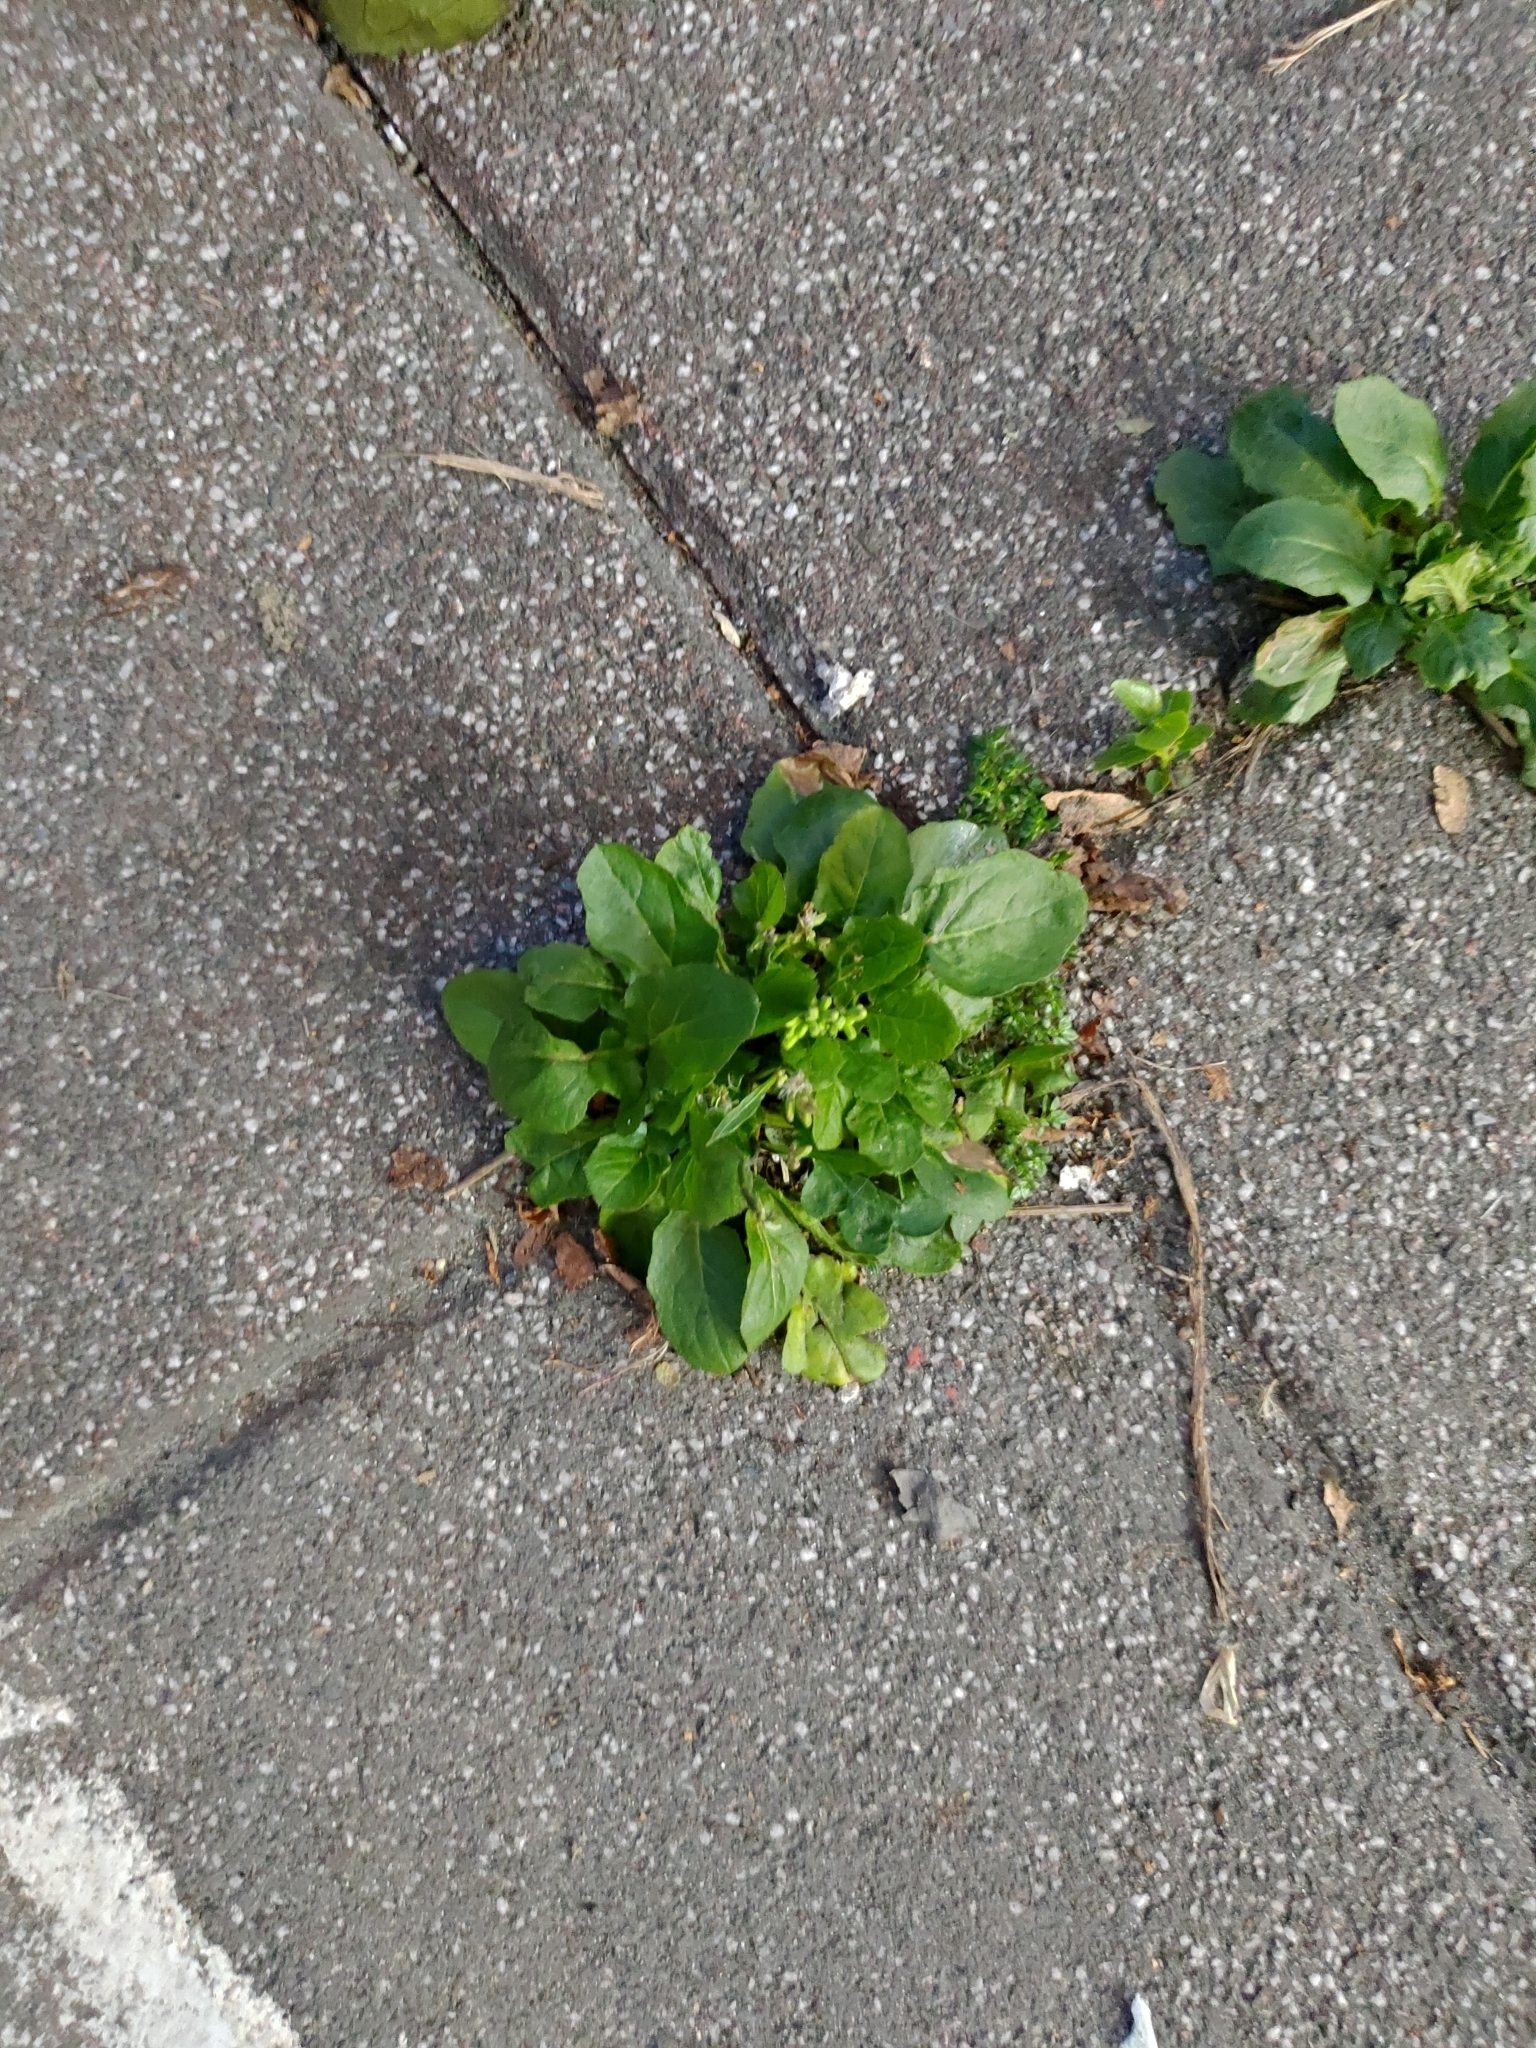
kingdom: Plantae
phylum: Tracheophyta
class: Magnoliopsida
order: Asterales
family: Asteraceae
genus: Youngia
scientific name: Youngia japonica
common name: Oriental false hawksbeard
